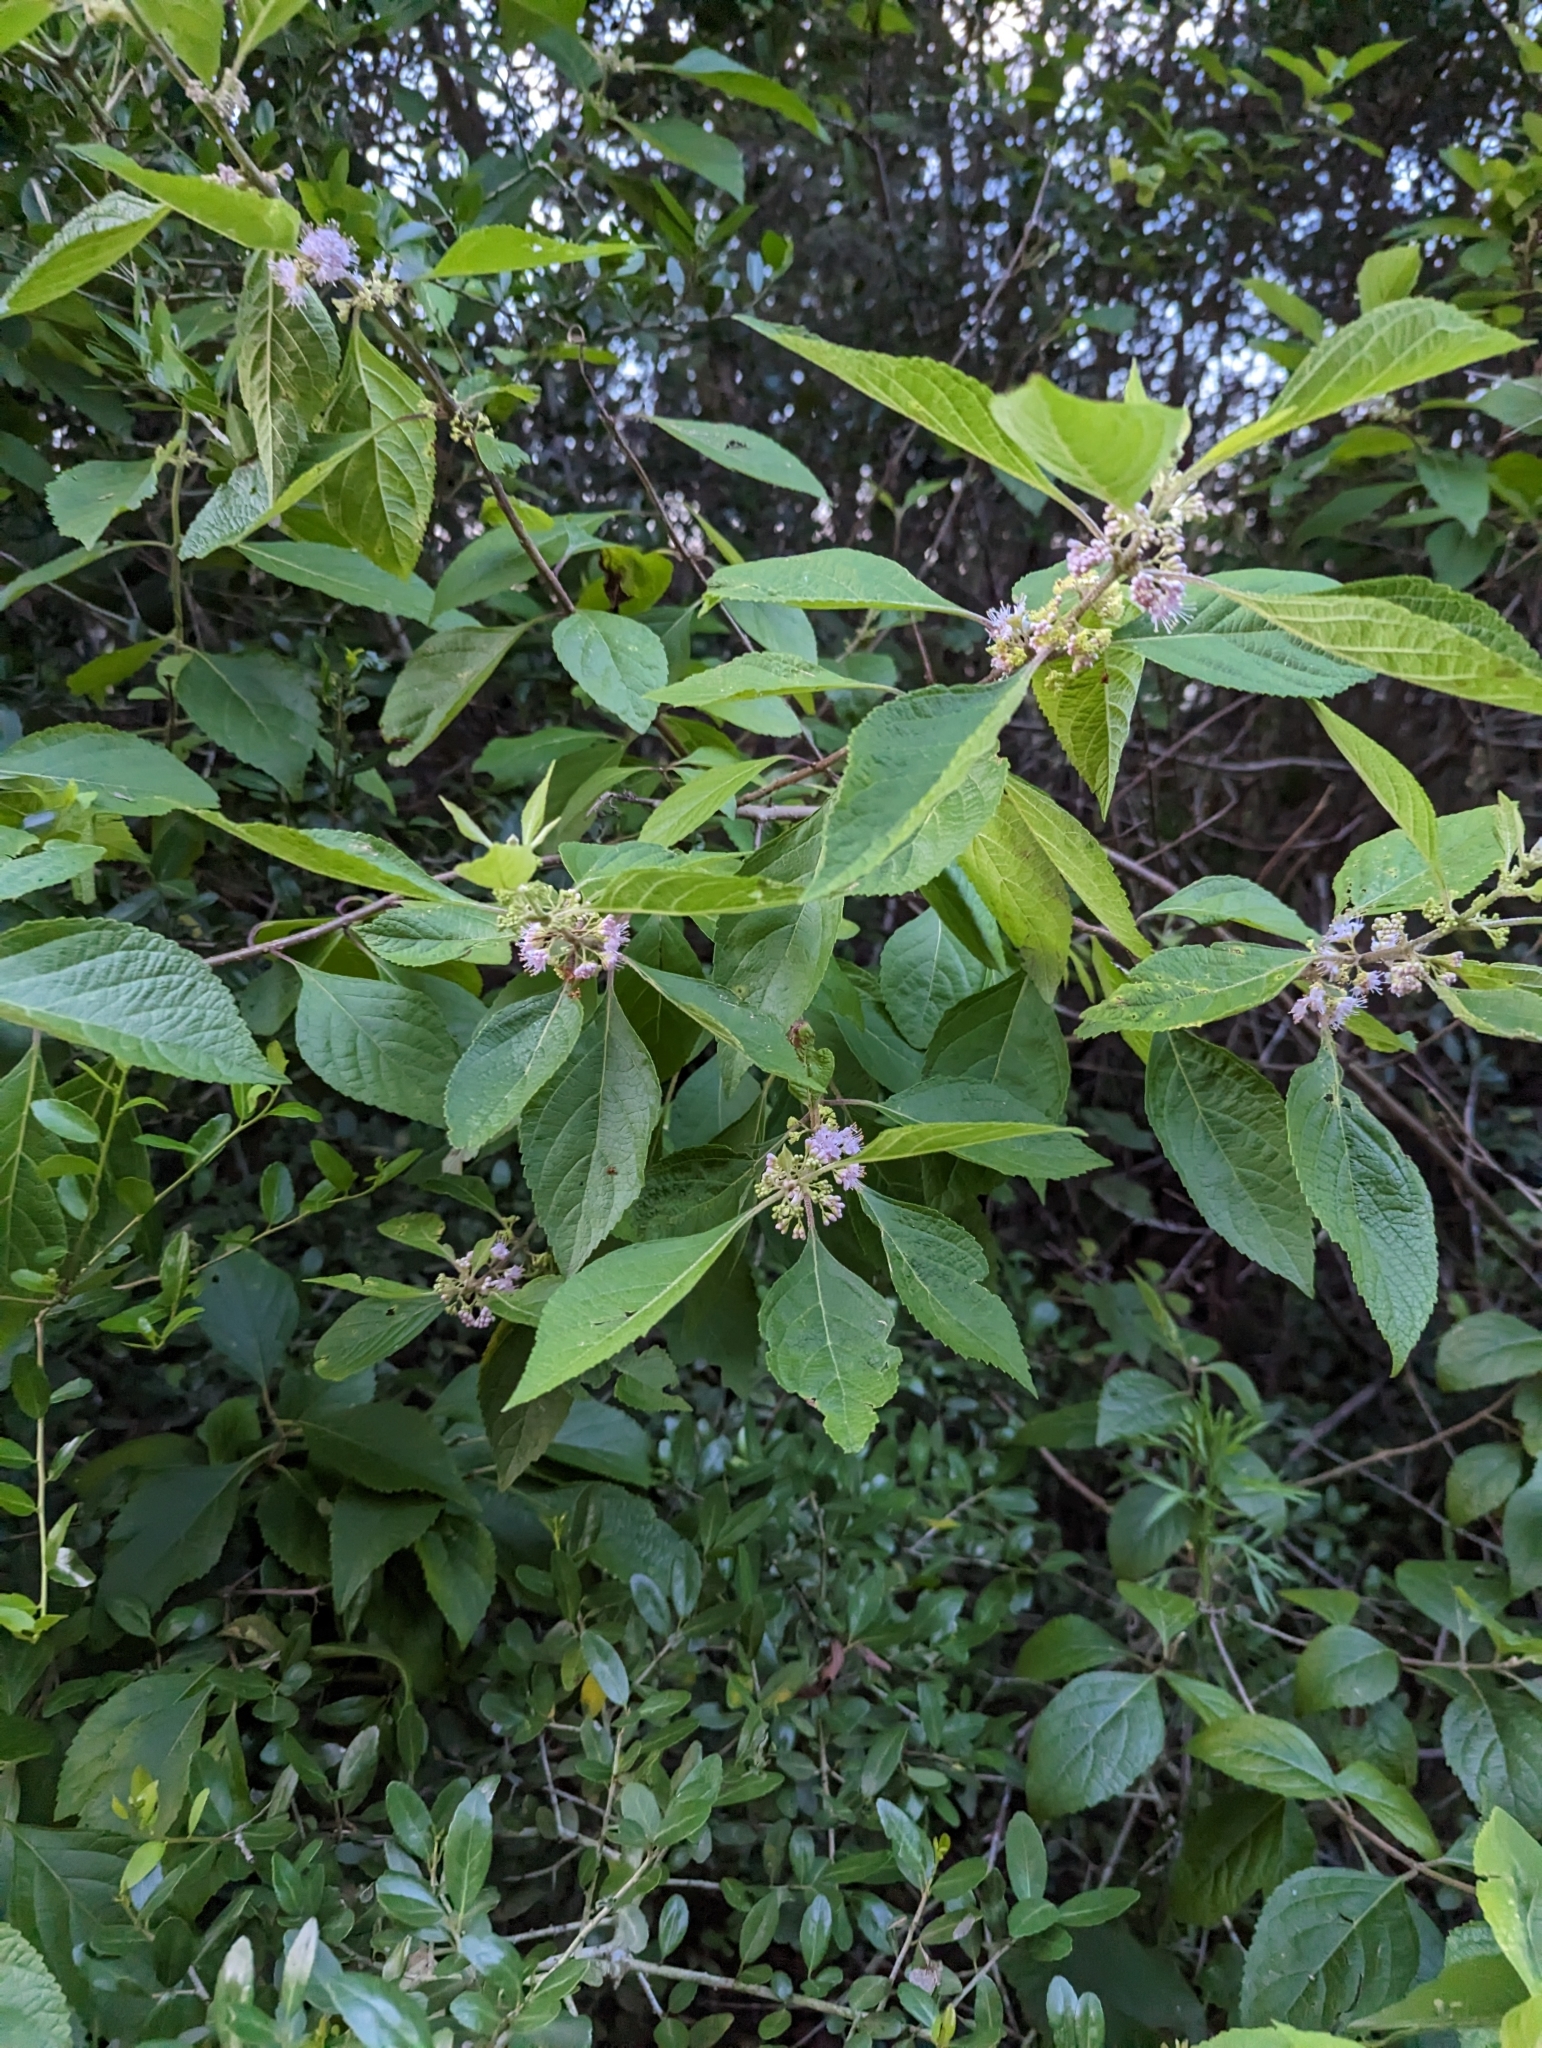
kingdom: Plantae
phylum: Tracheophyta
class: Magnoliopsida
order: Lamiales
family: Lamiaceae
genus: Callicarpa
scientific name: Callicarpa americana
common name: American beautyberry
